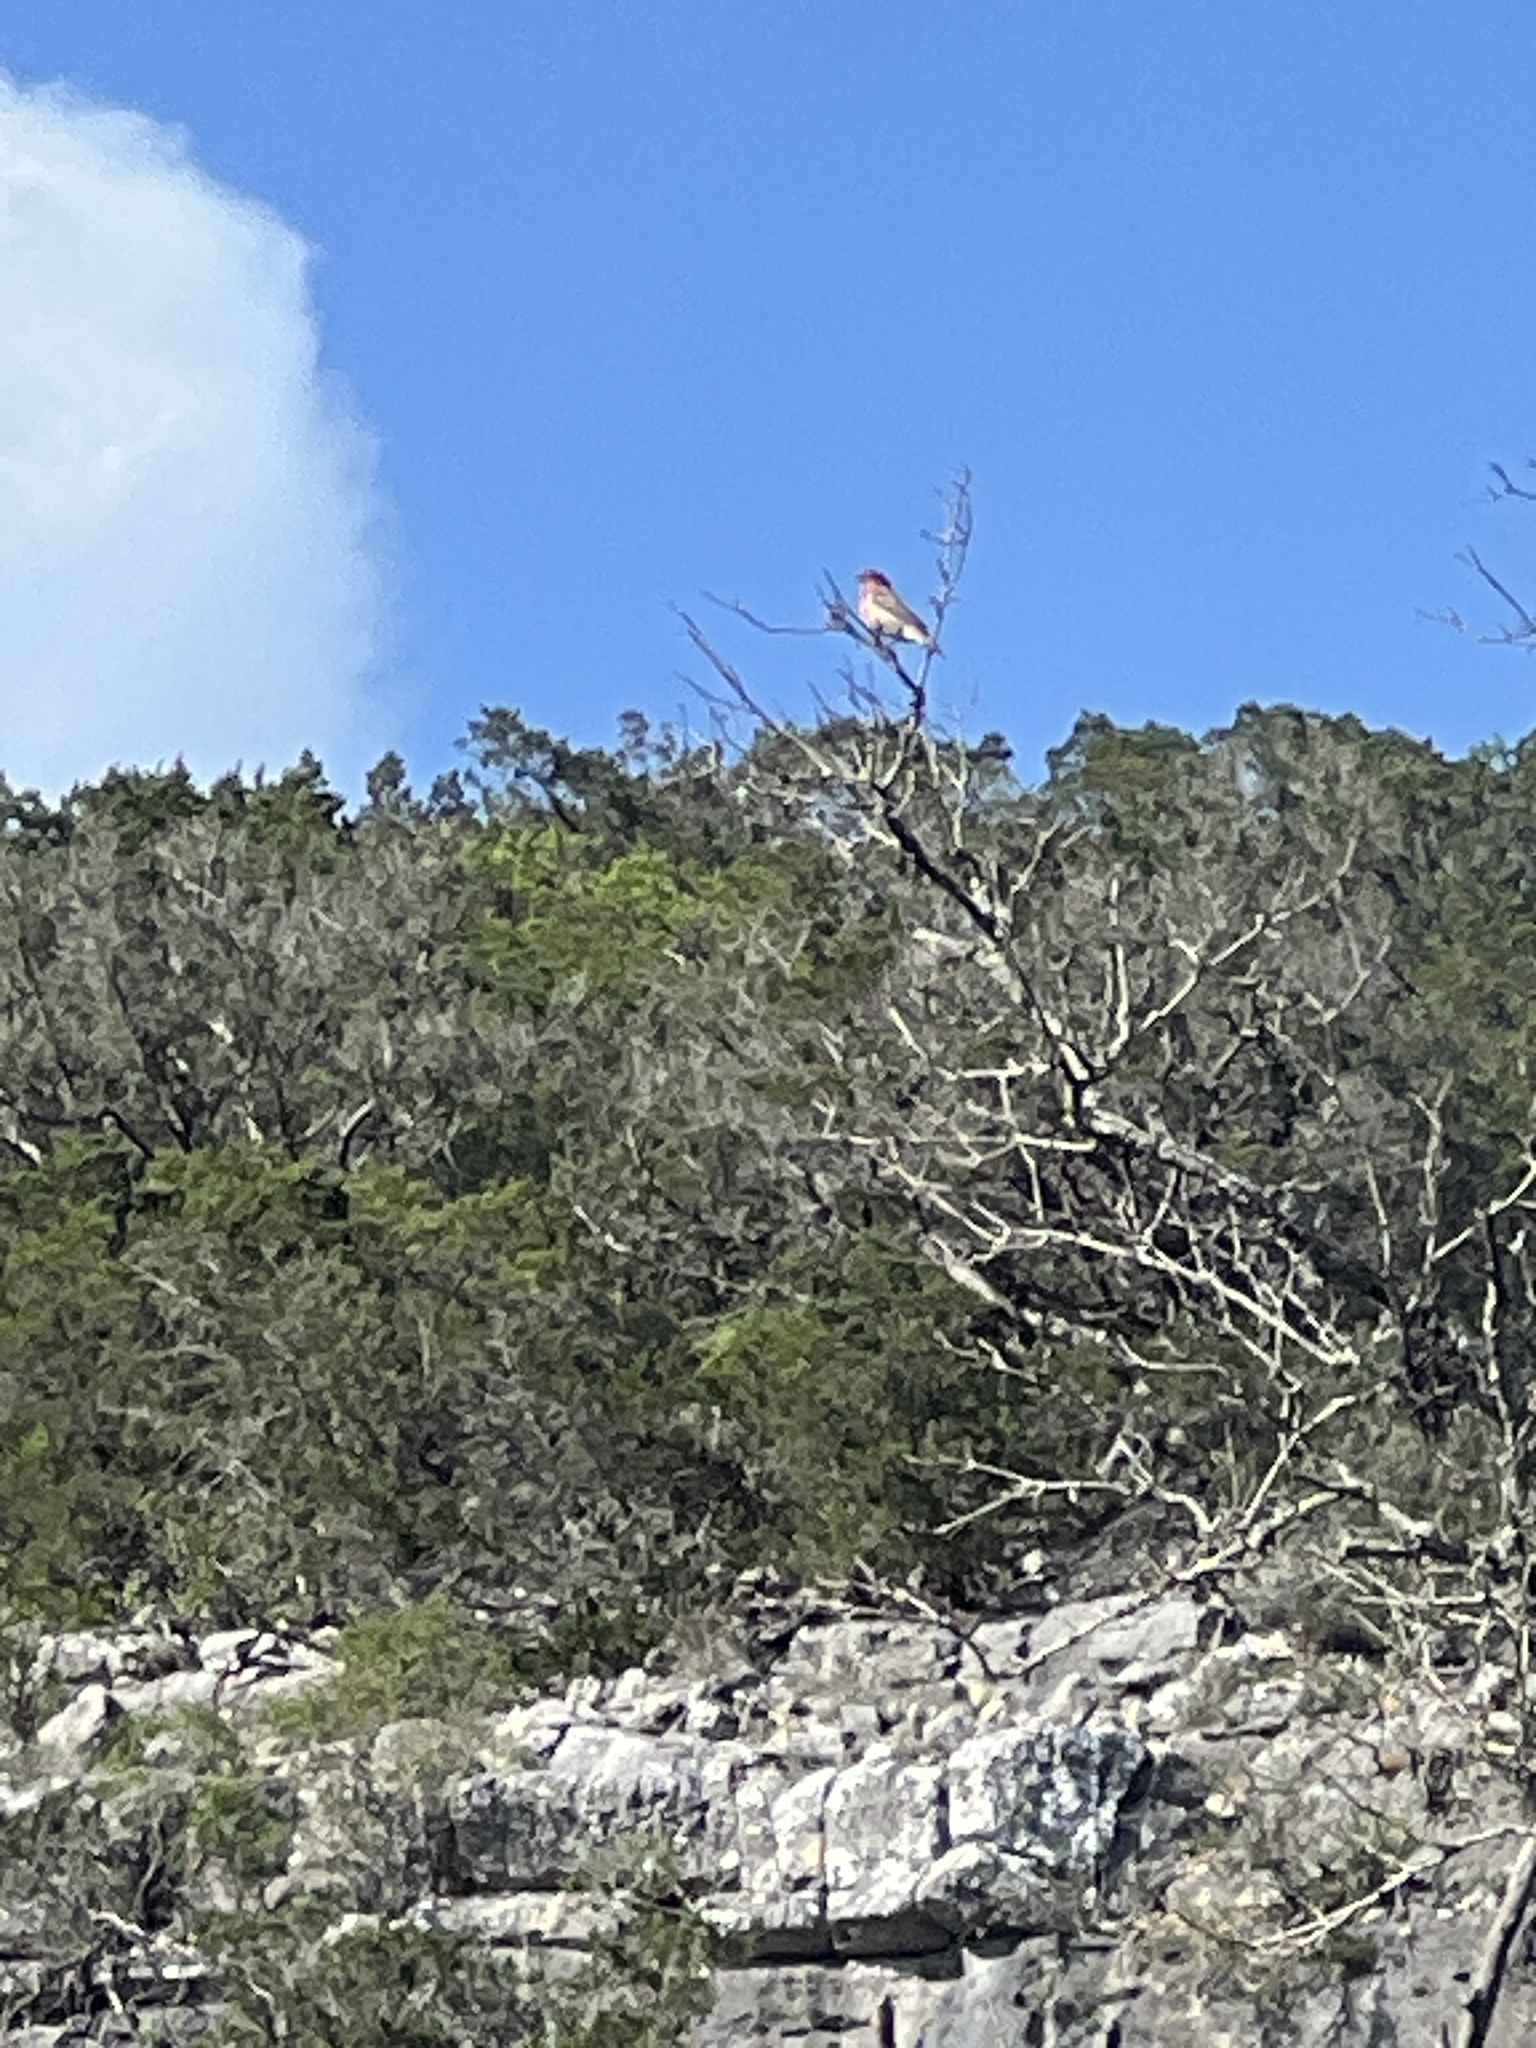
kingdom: Animalia
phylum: Chordata
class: Aves
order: Passeriformes
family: Fringillidae
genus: Haemorhous
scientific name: Haemorhous mexicanus
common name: House finch
